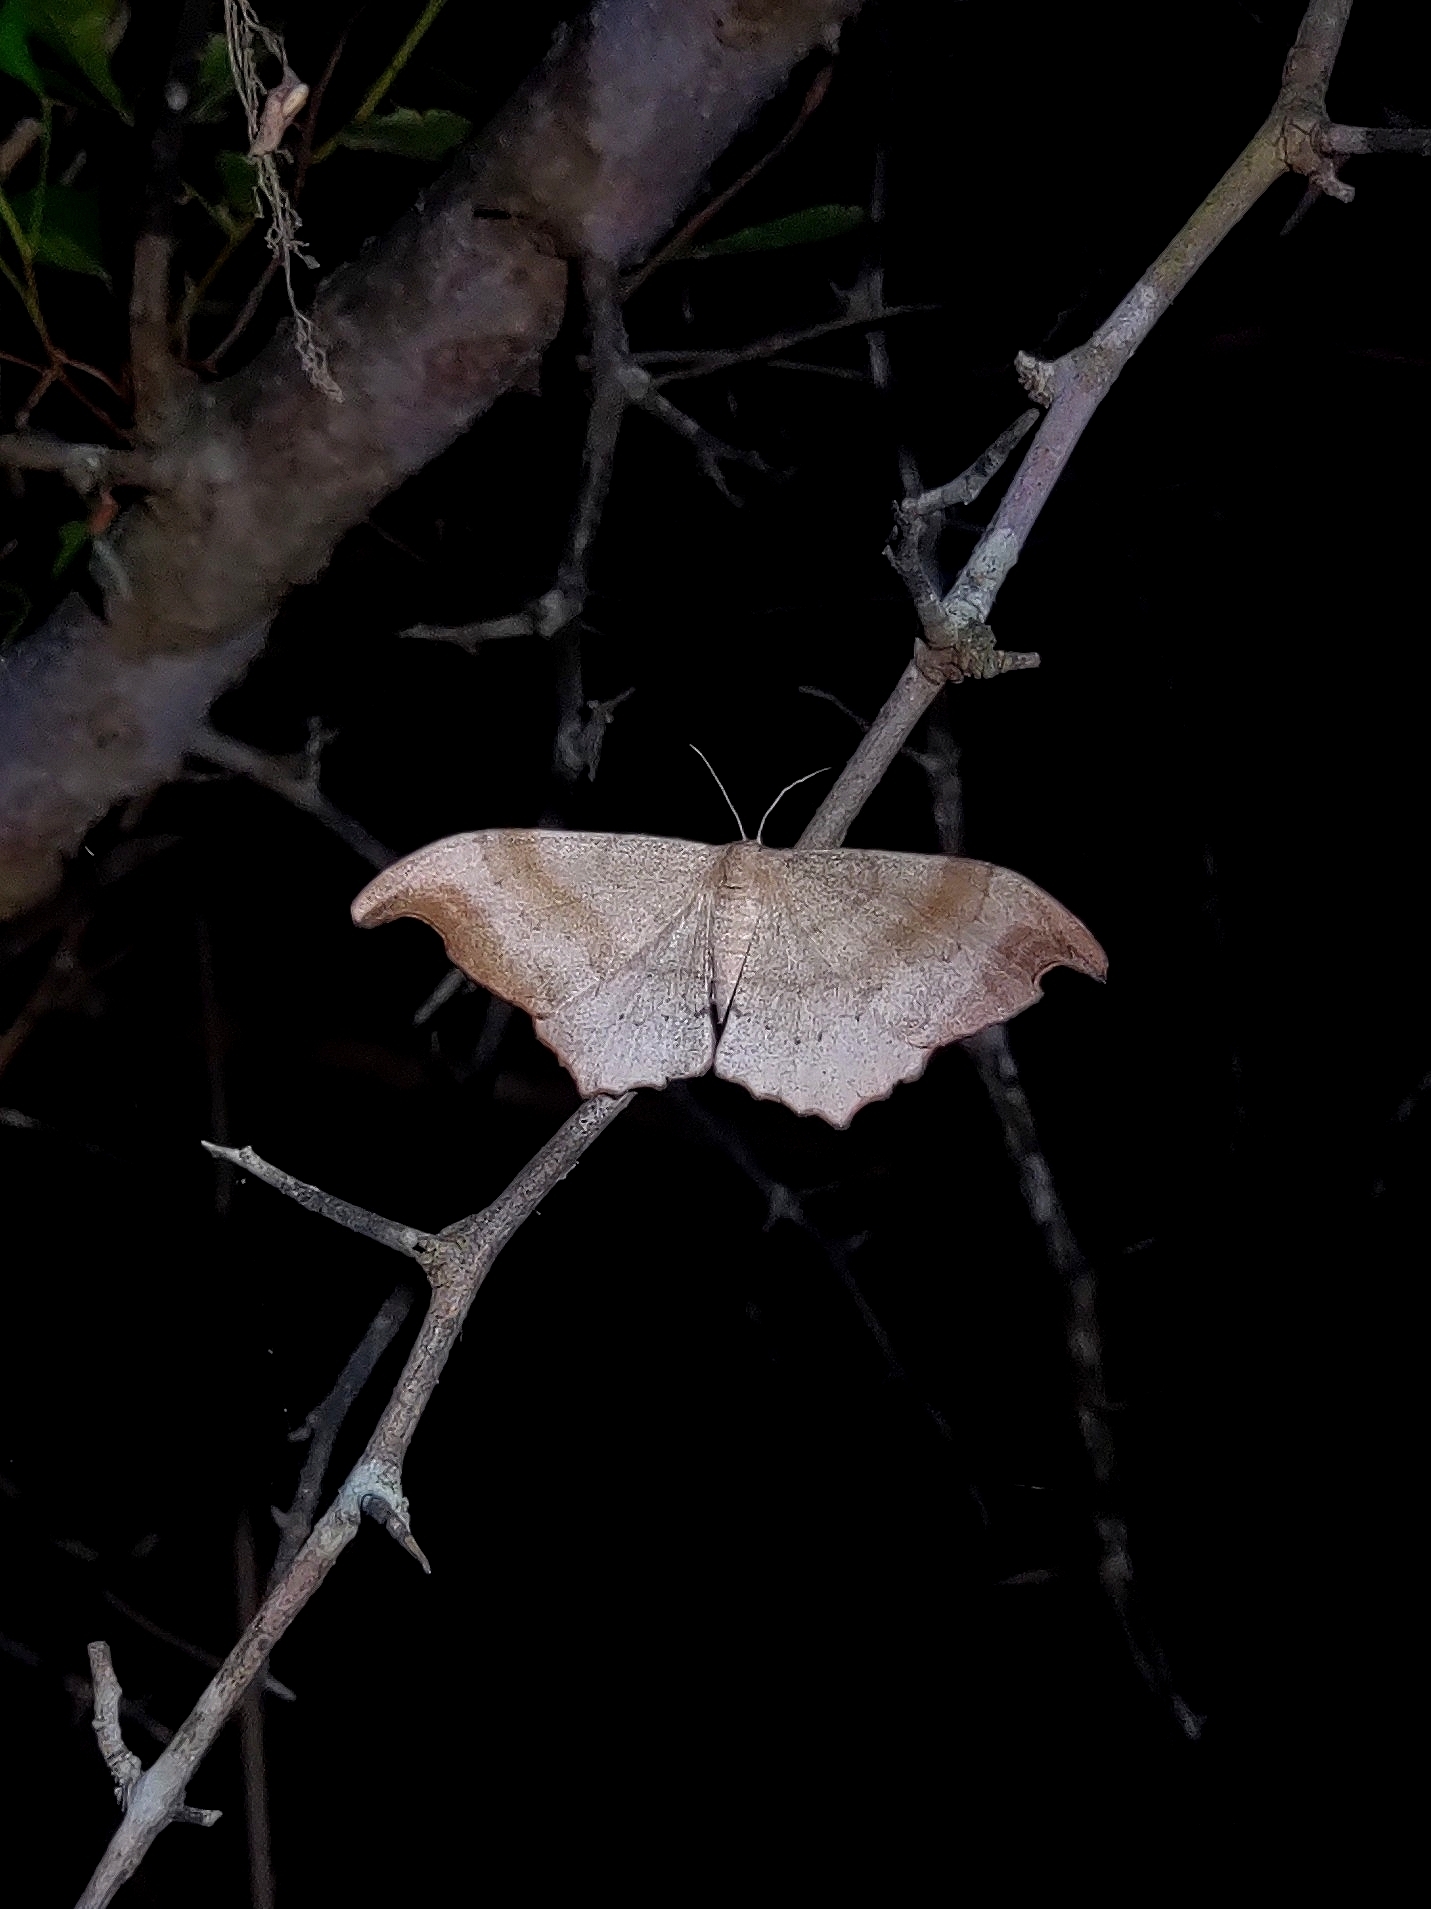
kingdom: Animalia
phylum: Arthropoda
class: Insecta
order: Lepidoptera
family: Geometridae
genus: Hyposidra
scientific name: Hyposidra talaca
